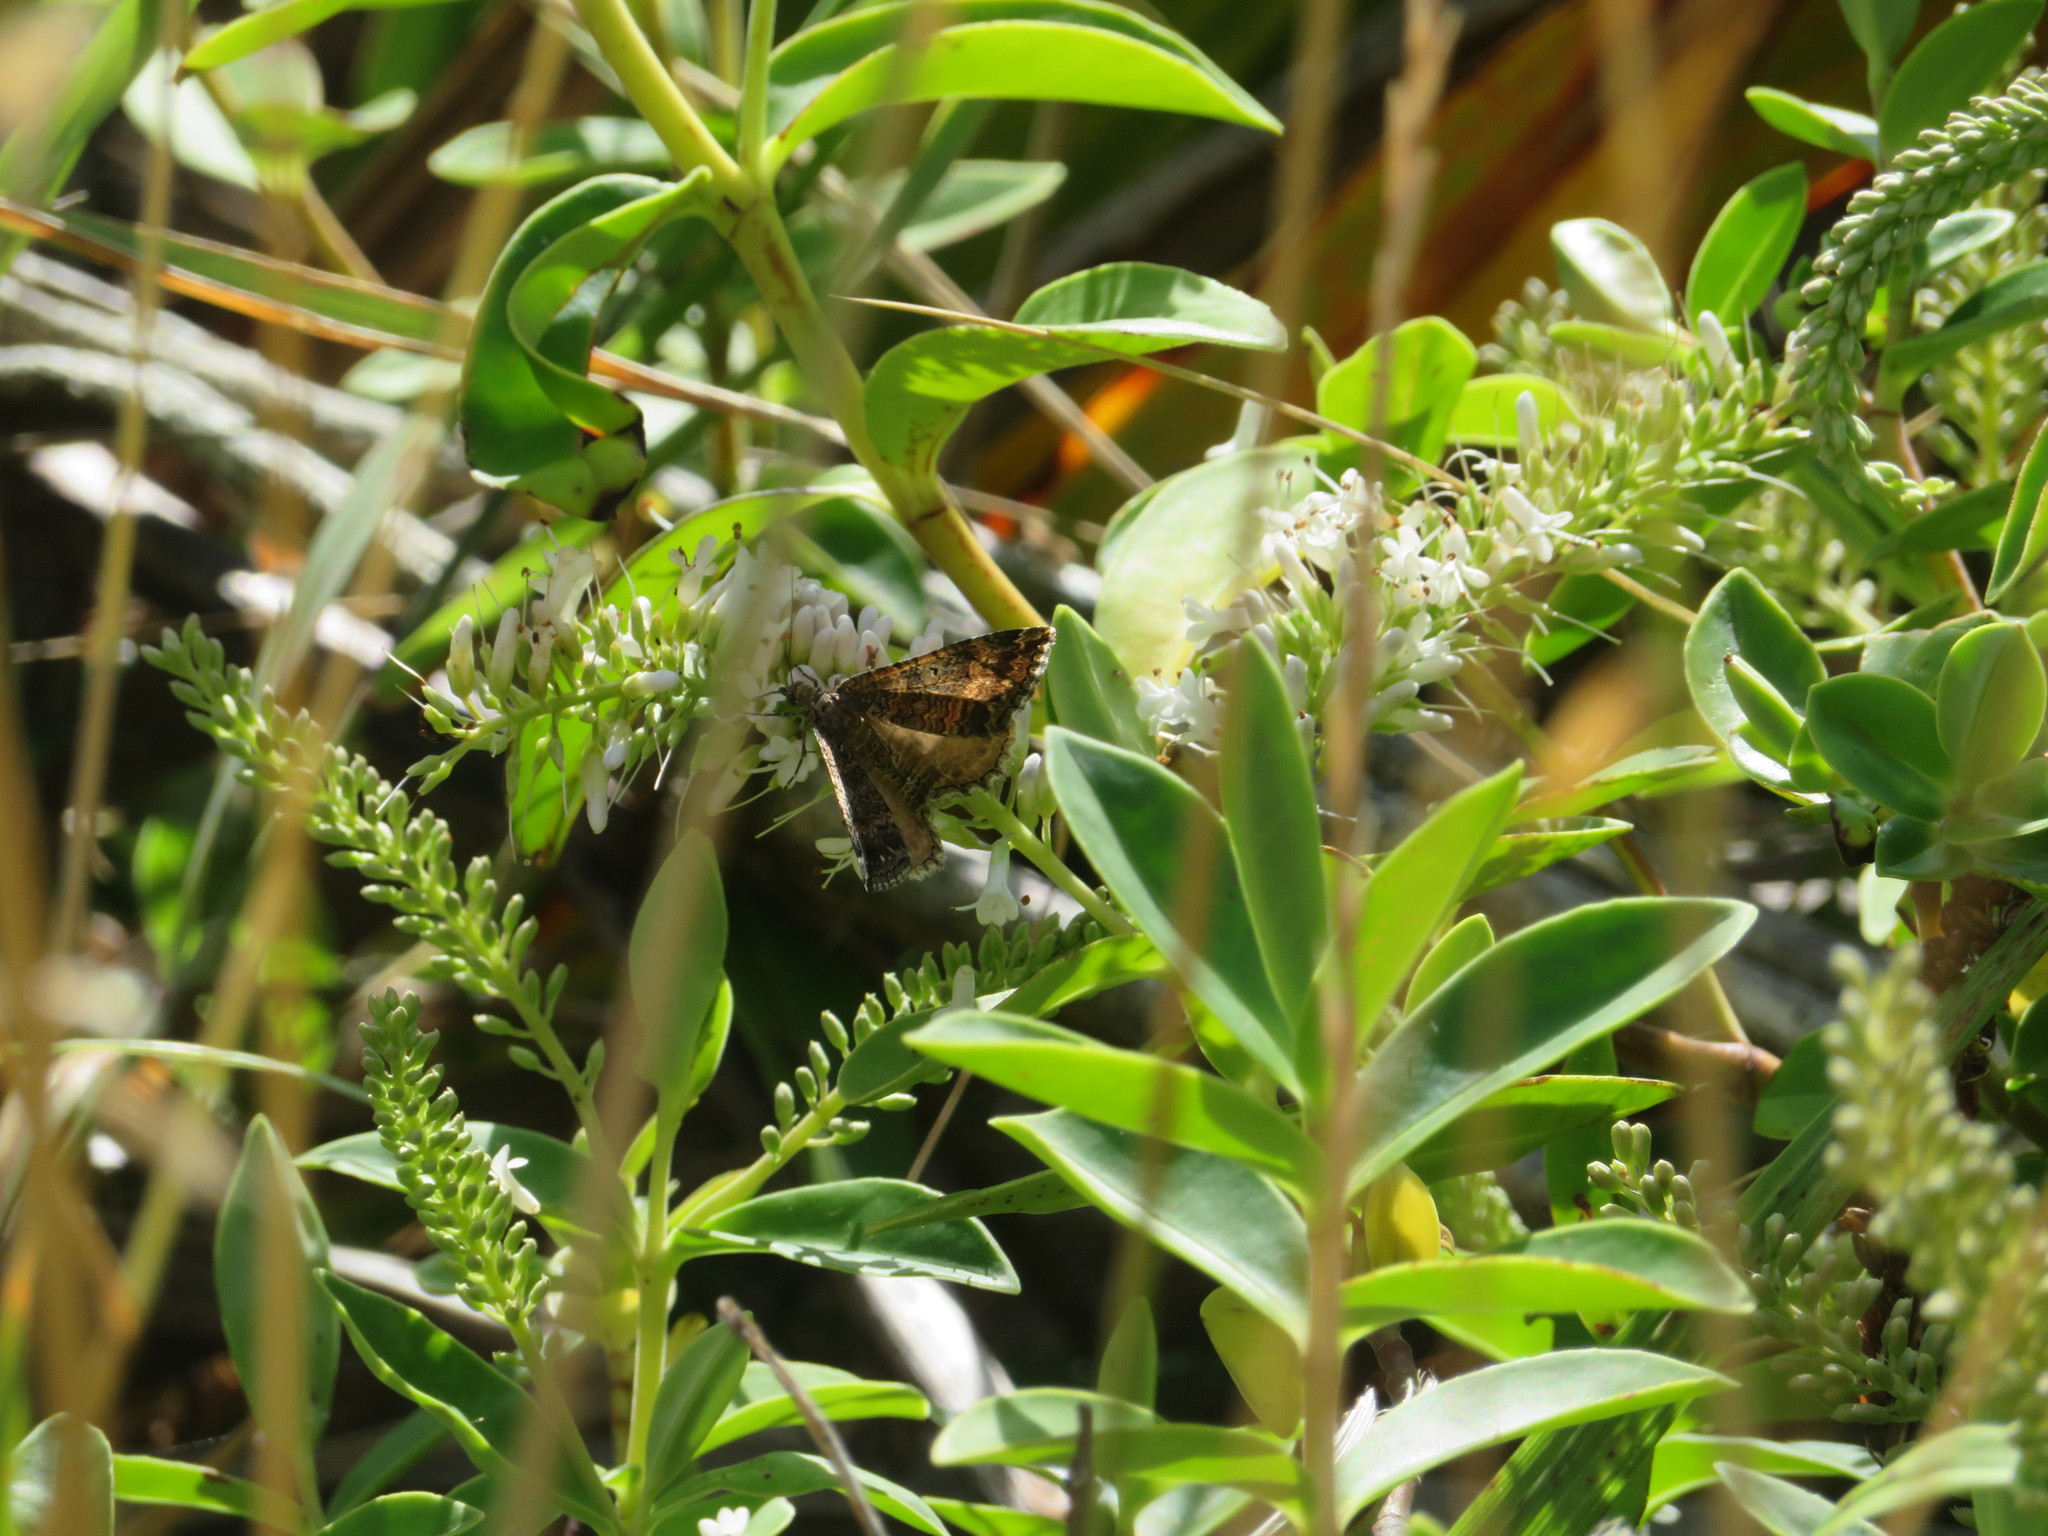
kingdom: Animalia
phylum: Arthropoda
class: Insecta
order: Lepidoptera
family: Geometridae
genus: Hydriomena
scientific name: Hydriomena deltoidata
